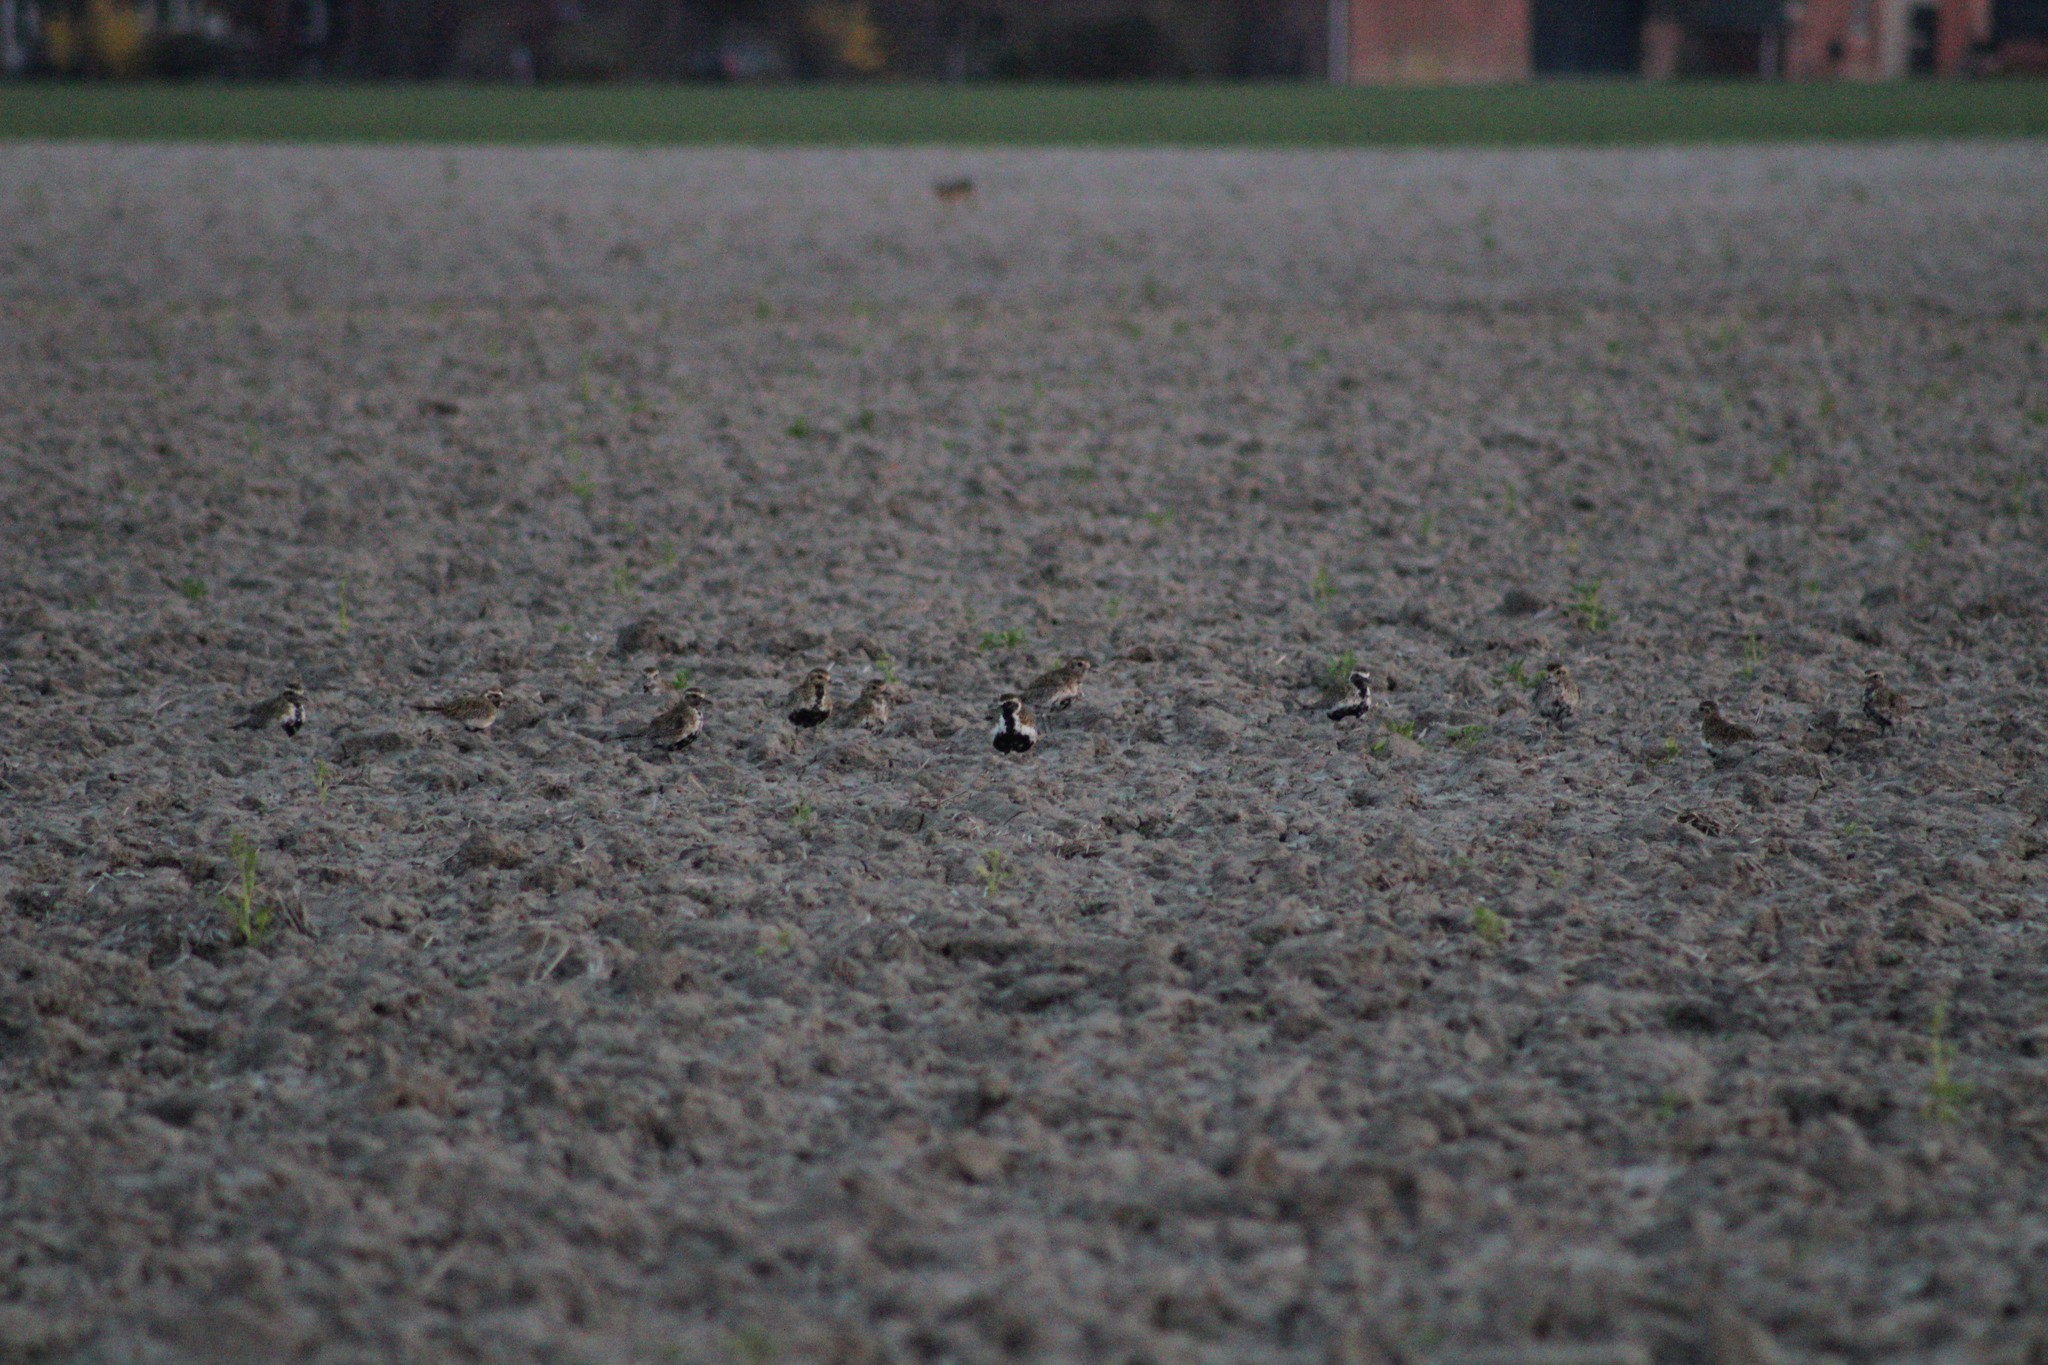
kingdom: Animalia
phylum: Chordata
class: Aves
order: Charadriiformes
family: Charadriidae
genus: Pluvialis
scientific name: Pluvialis apricaria
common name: European golden plover
